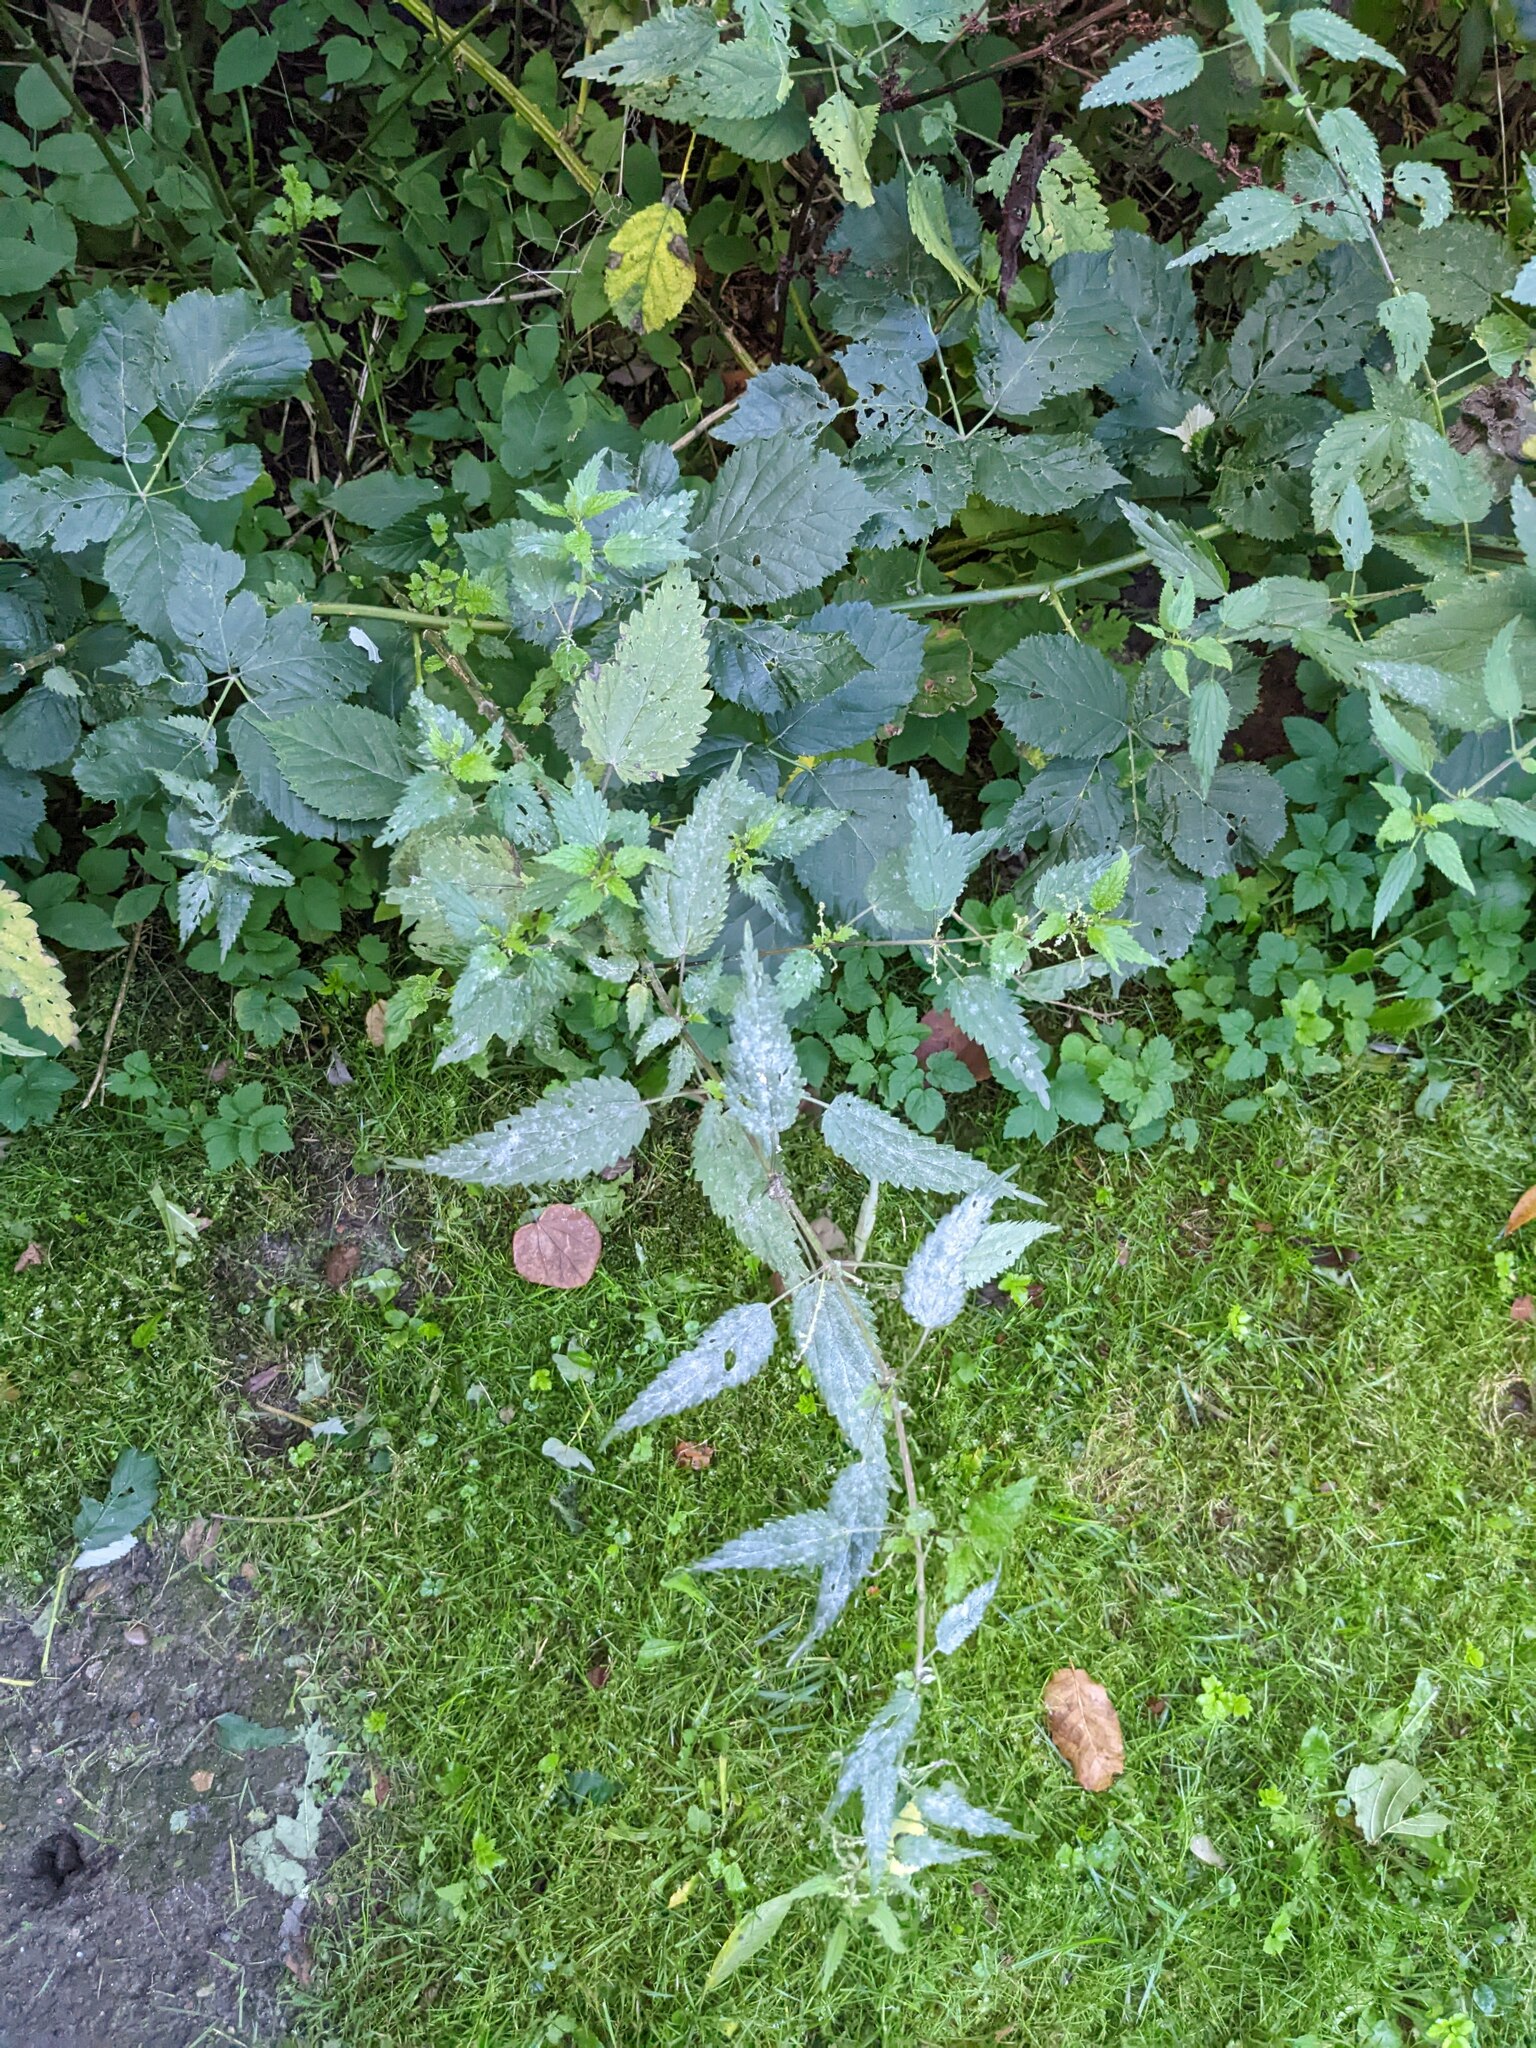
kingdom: Plantae
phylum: Tracheophyta
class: Magnoliopsida
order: Rosales
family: Urticaceae
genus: Urtica
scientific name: Urtica dioica
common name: Common nettle
